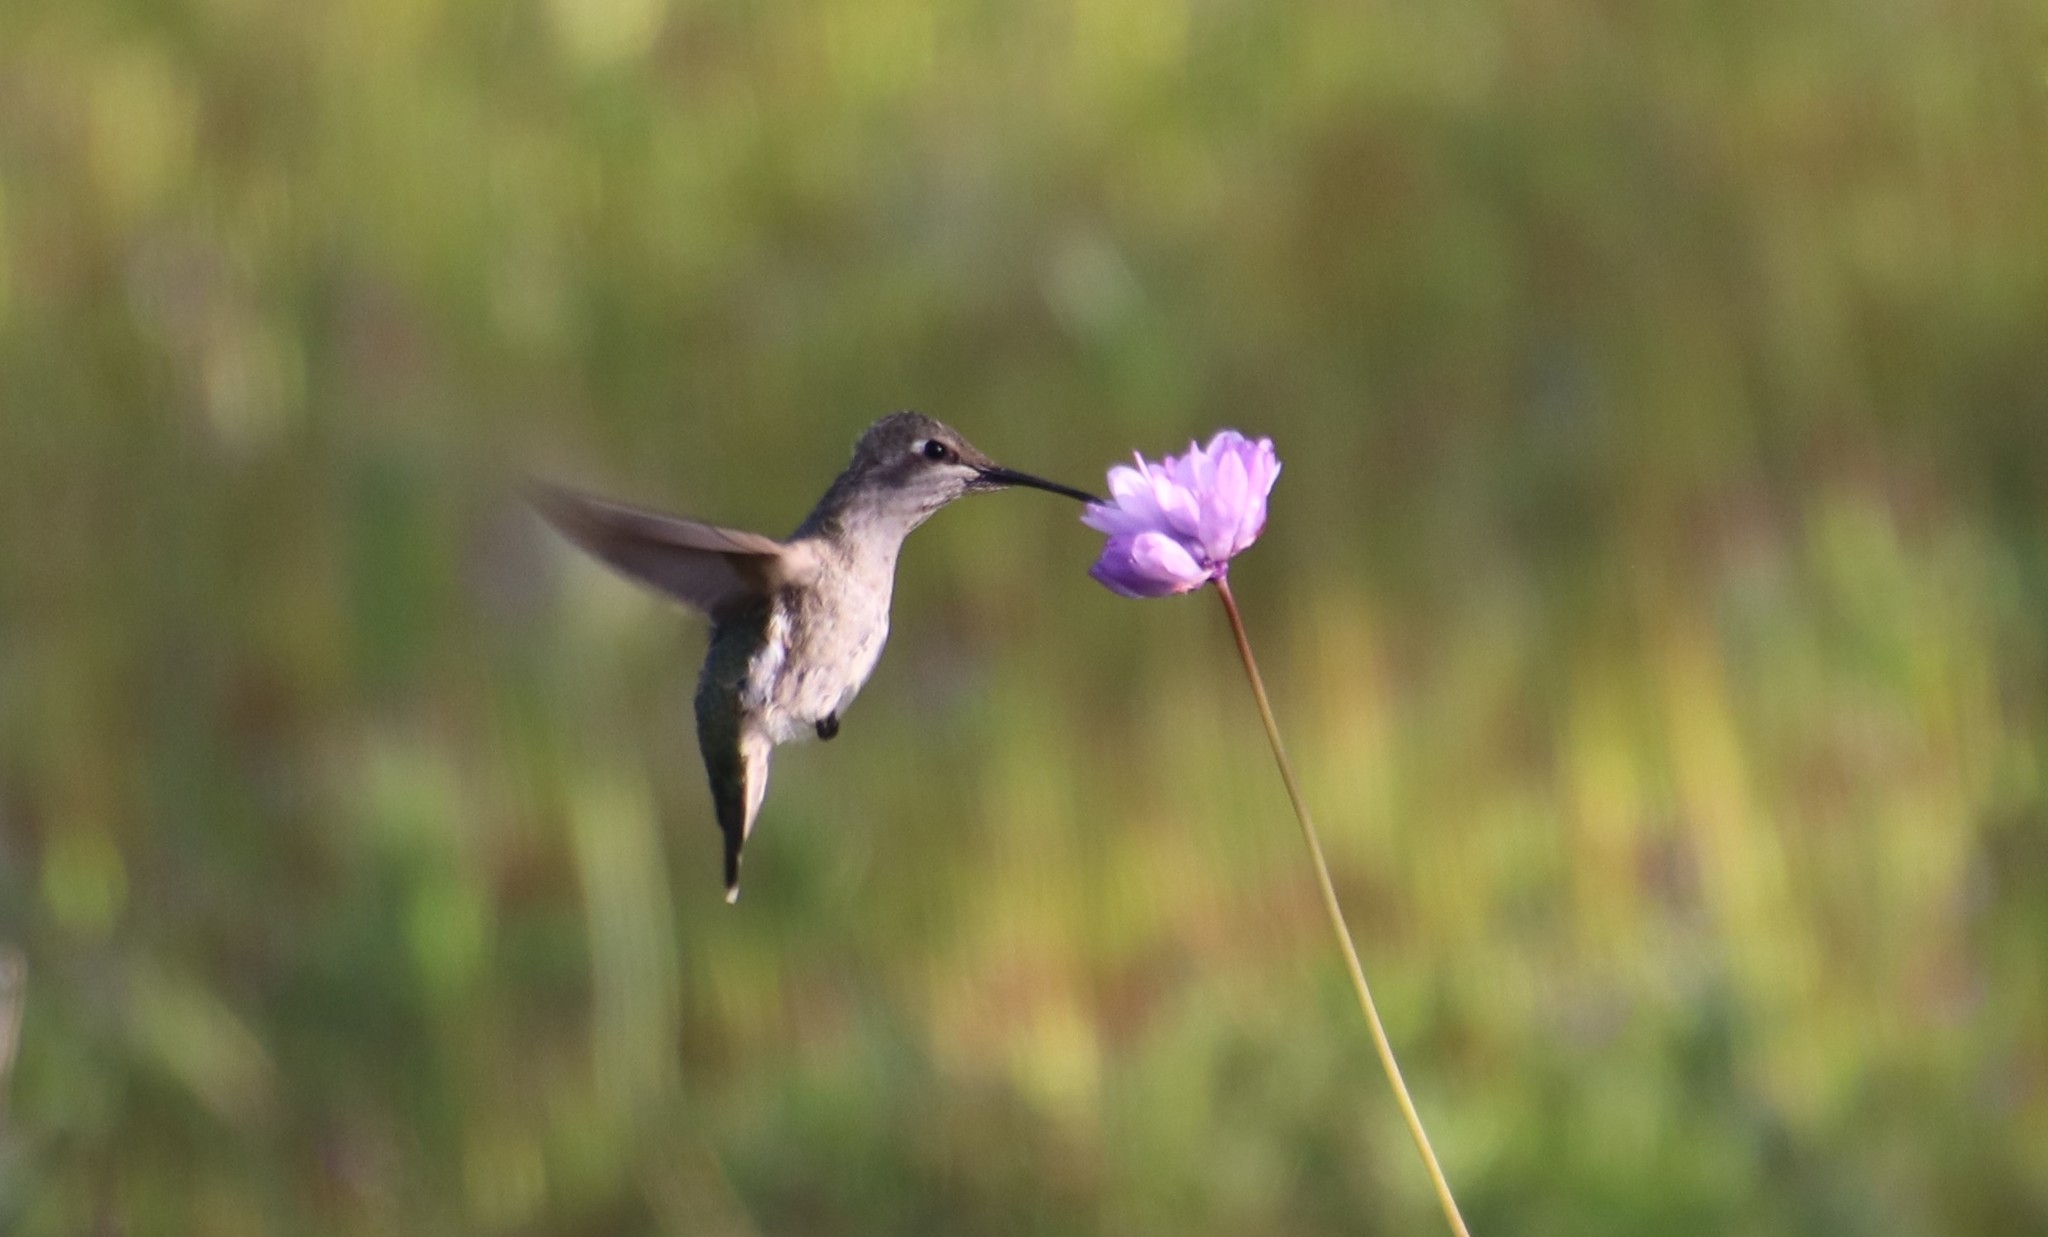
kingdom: Animalia
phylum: Chordata
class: Aves
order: Apodiformes
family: Trochilidae
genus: Calypte
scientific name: Calypte anna
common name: Anna's hummingbird
